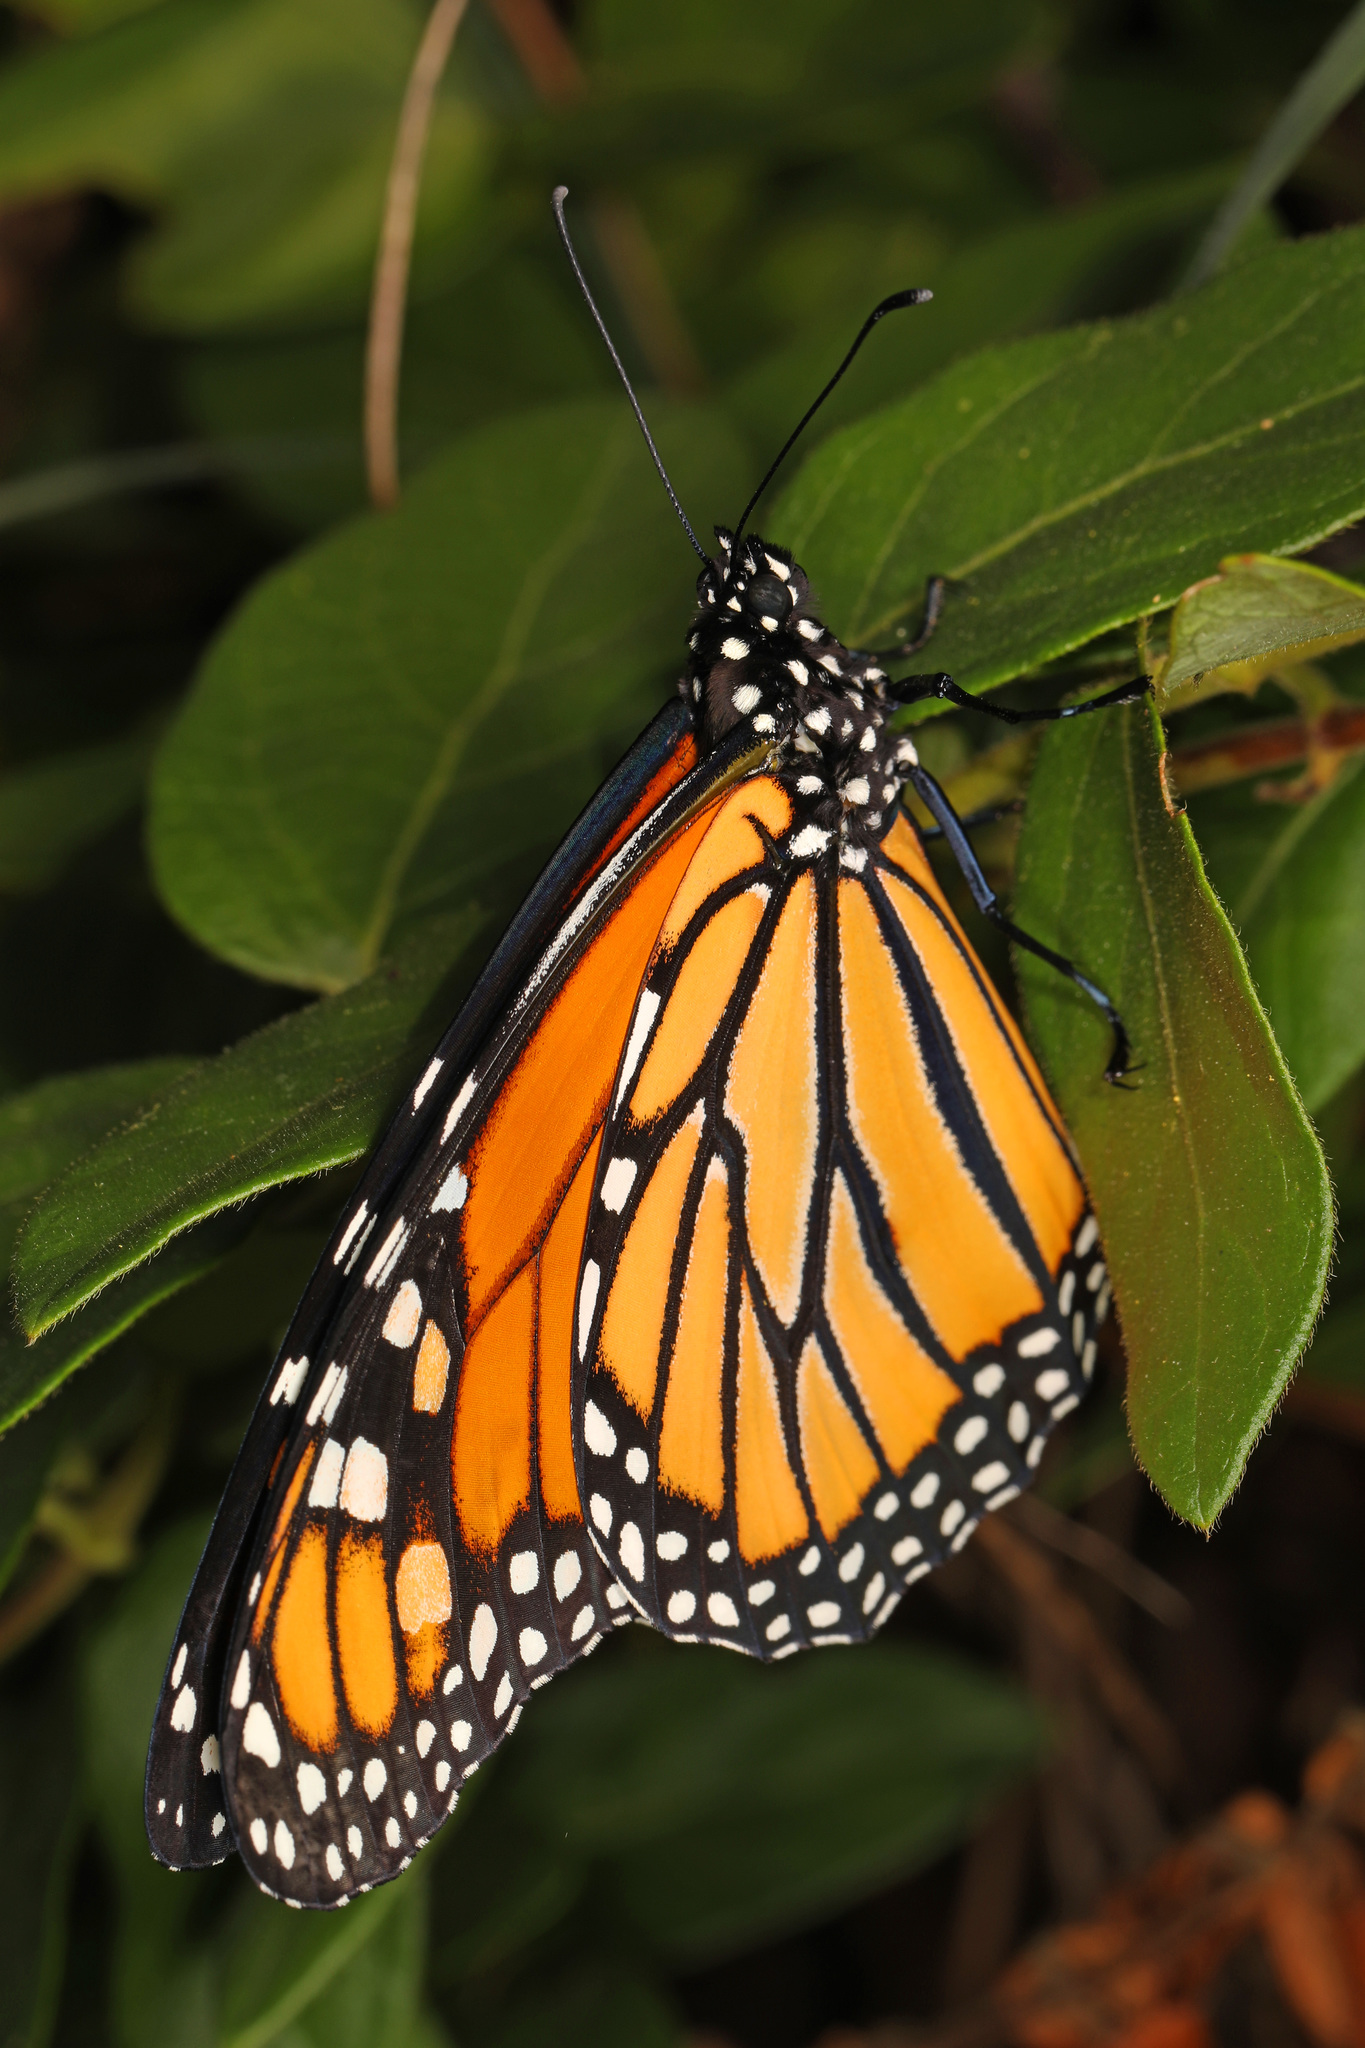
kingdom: Animalia
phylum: Arthropoda
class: Insecta
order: Lepidoptera
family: Nymphalidae
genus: Danaus
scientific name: Danaus plexippus
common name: Monarch
